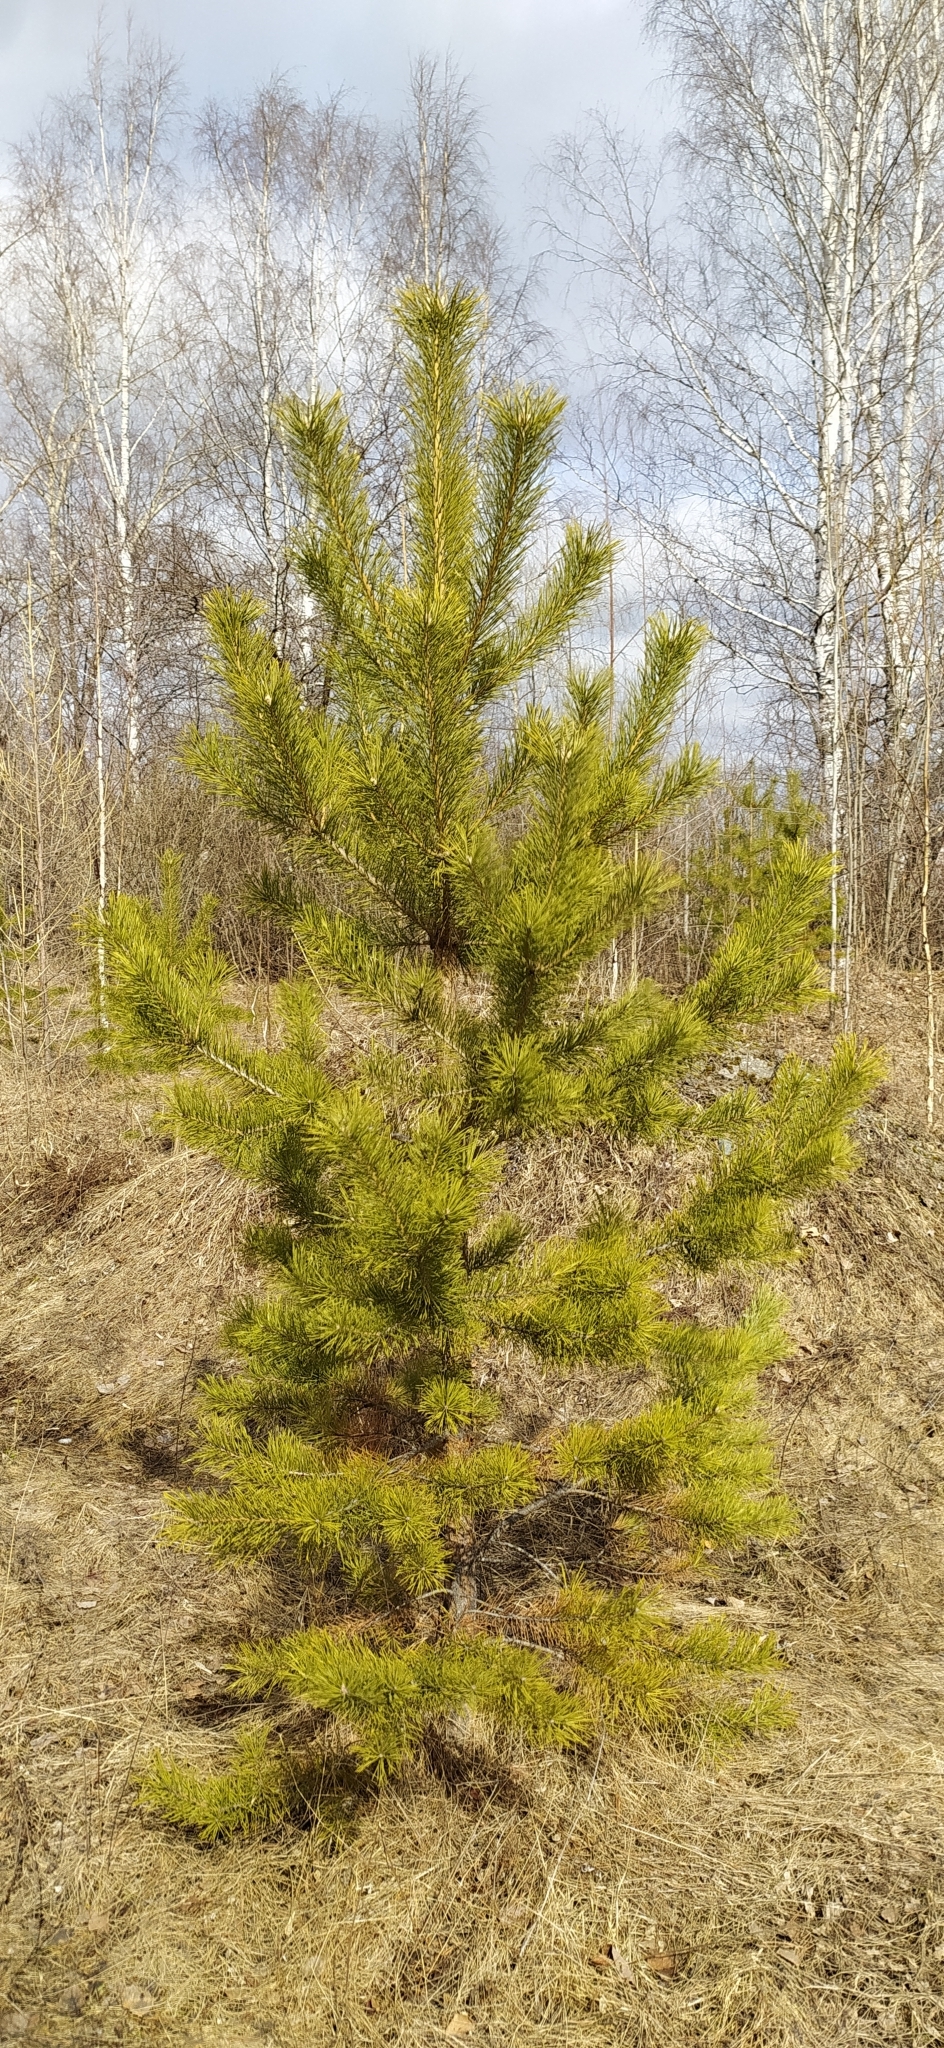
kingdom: Plantae
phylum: Tracheophyta
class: Pinopsida
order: Pinales
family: Pinaceae
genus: Pinus
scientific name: Pinus sylvestris
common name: Scots pine
